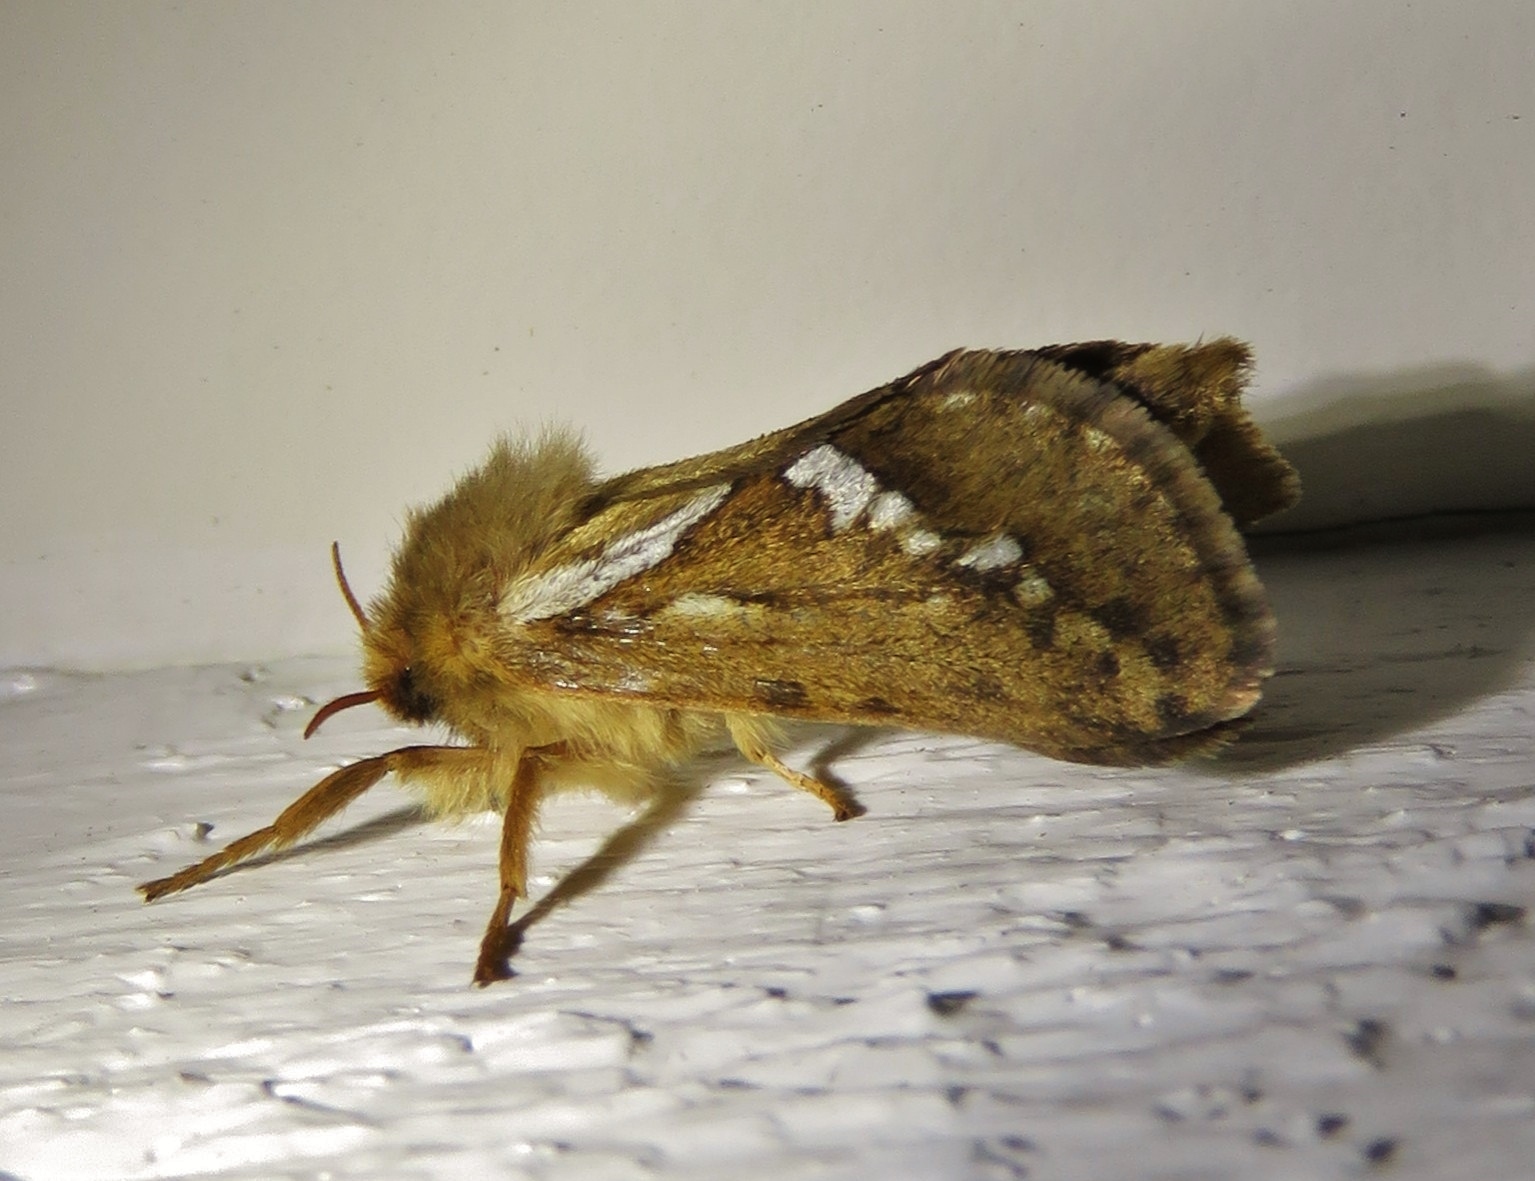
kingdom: Animalia
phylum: Arthropoda
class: Insecta
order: Lepidoptera
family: Hepialidae
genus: Korscheltellus
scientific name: Korscheltellus lupulina
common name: Common swift
